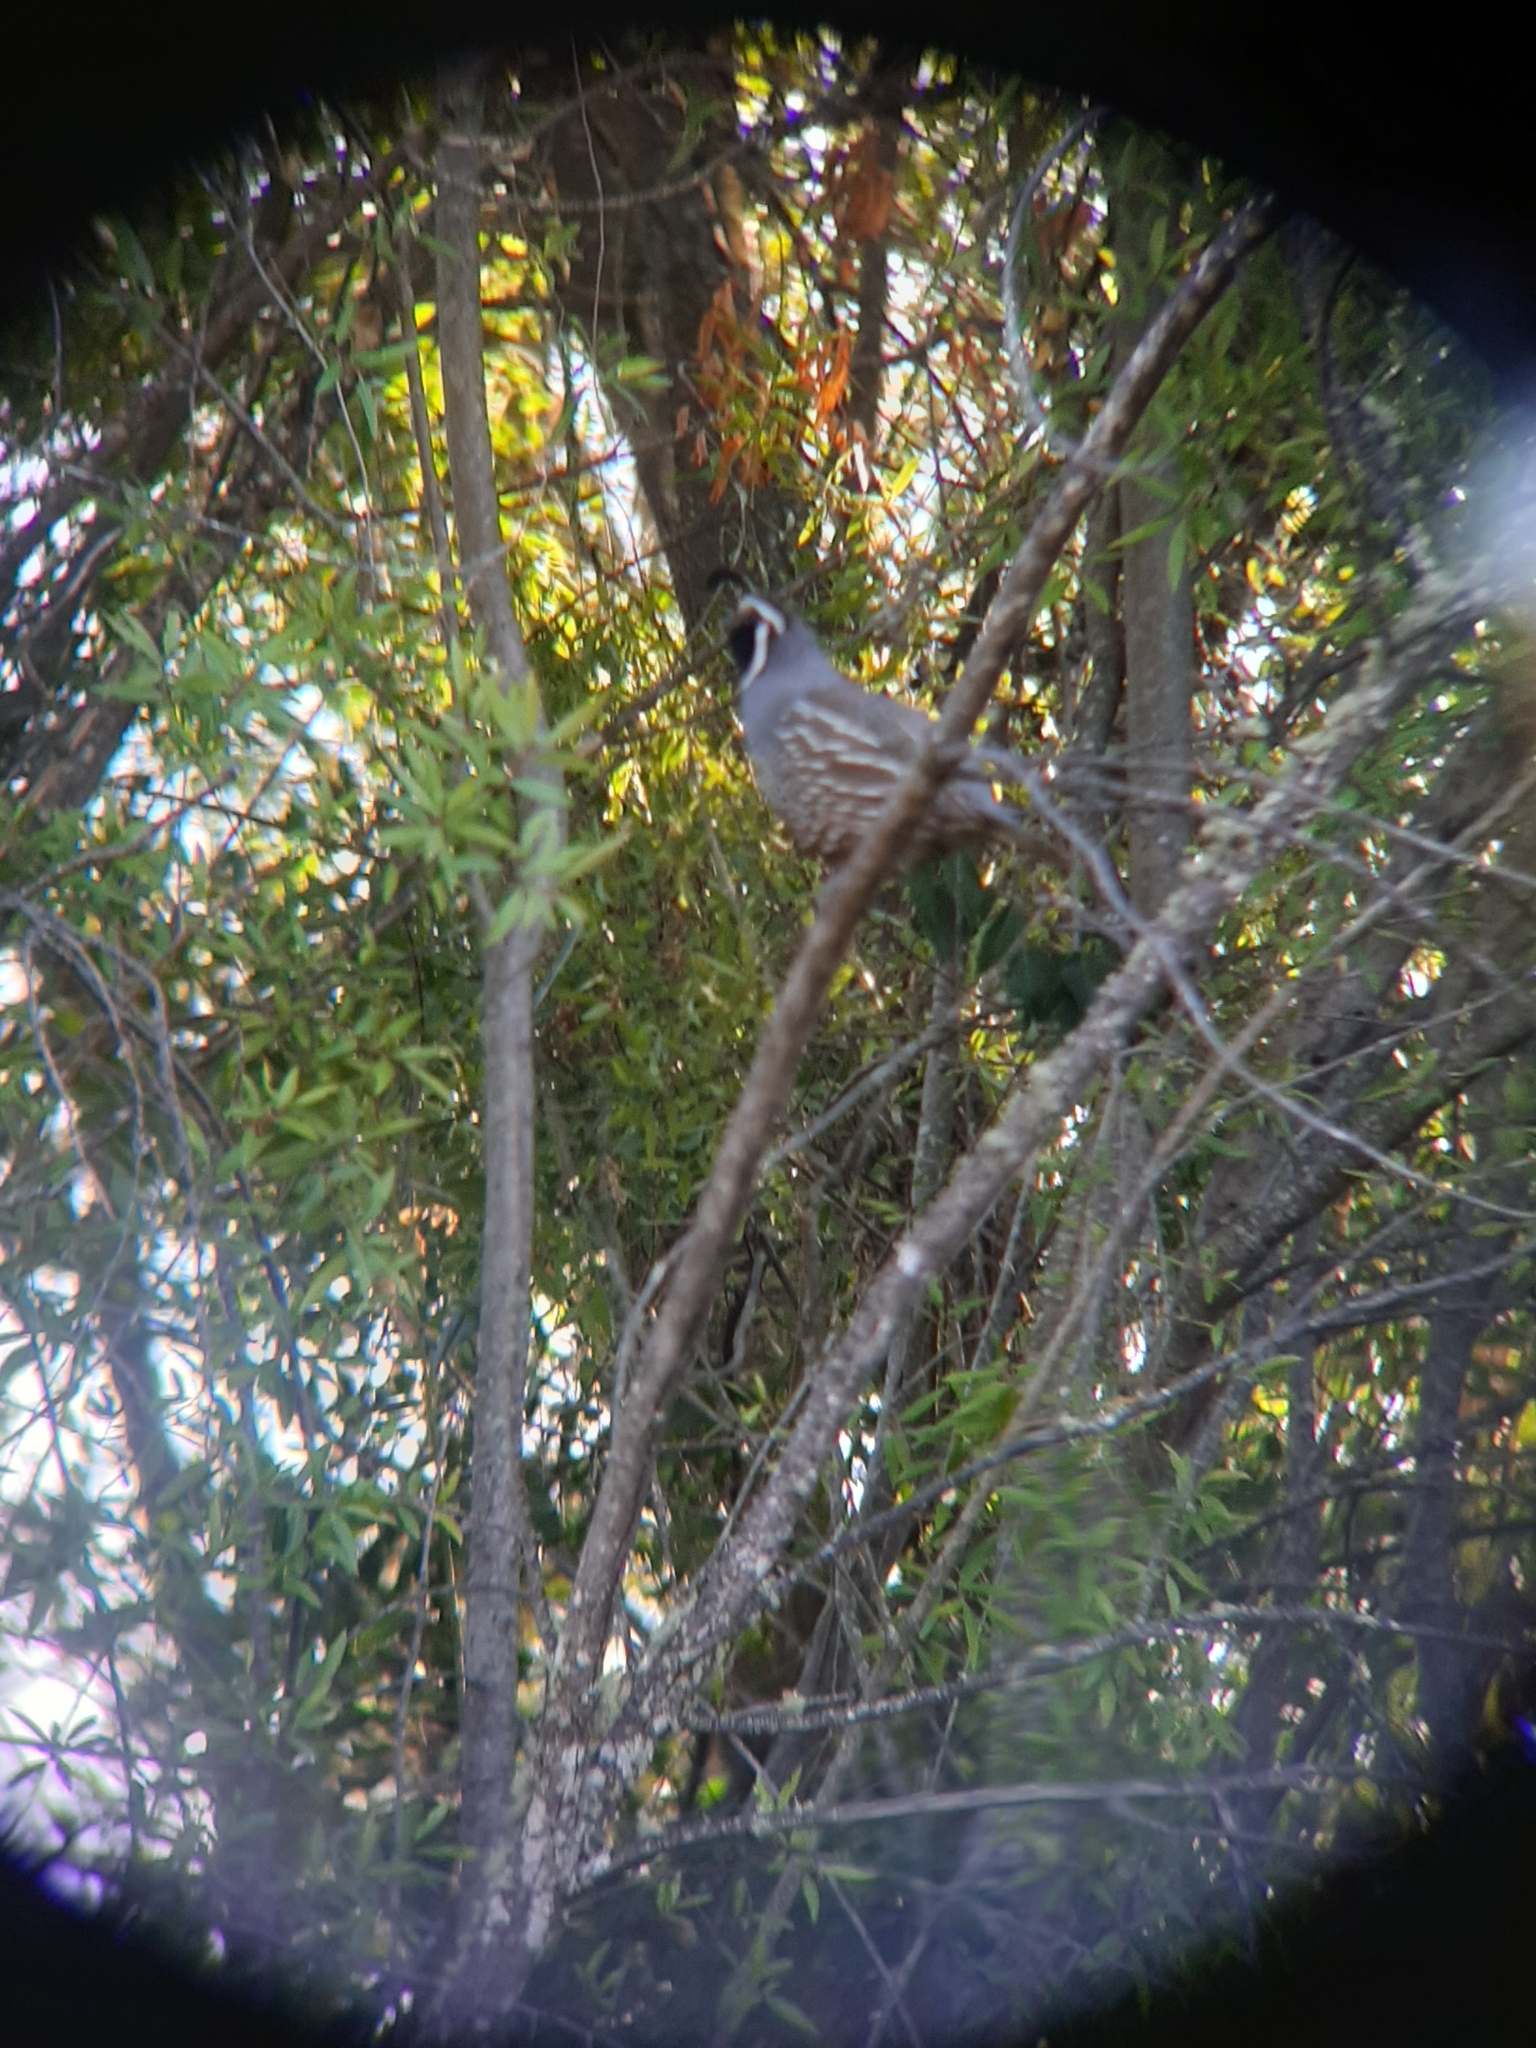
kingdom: Animalia
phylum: Chordata
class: Aves
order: Galliformes
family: Odontophoridae
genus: Callipepla
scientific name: Callipepla californica
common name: California quail
